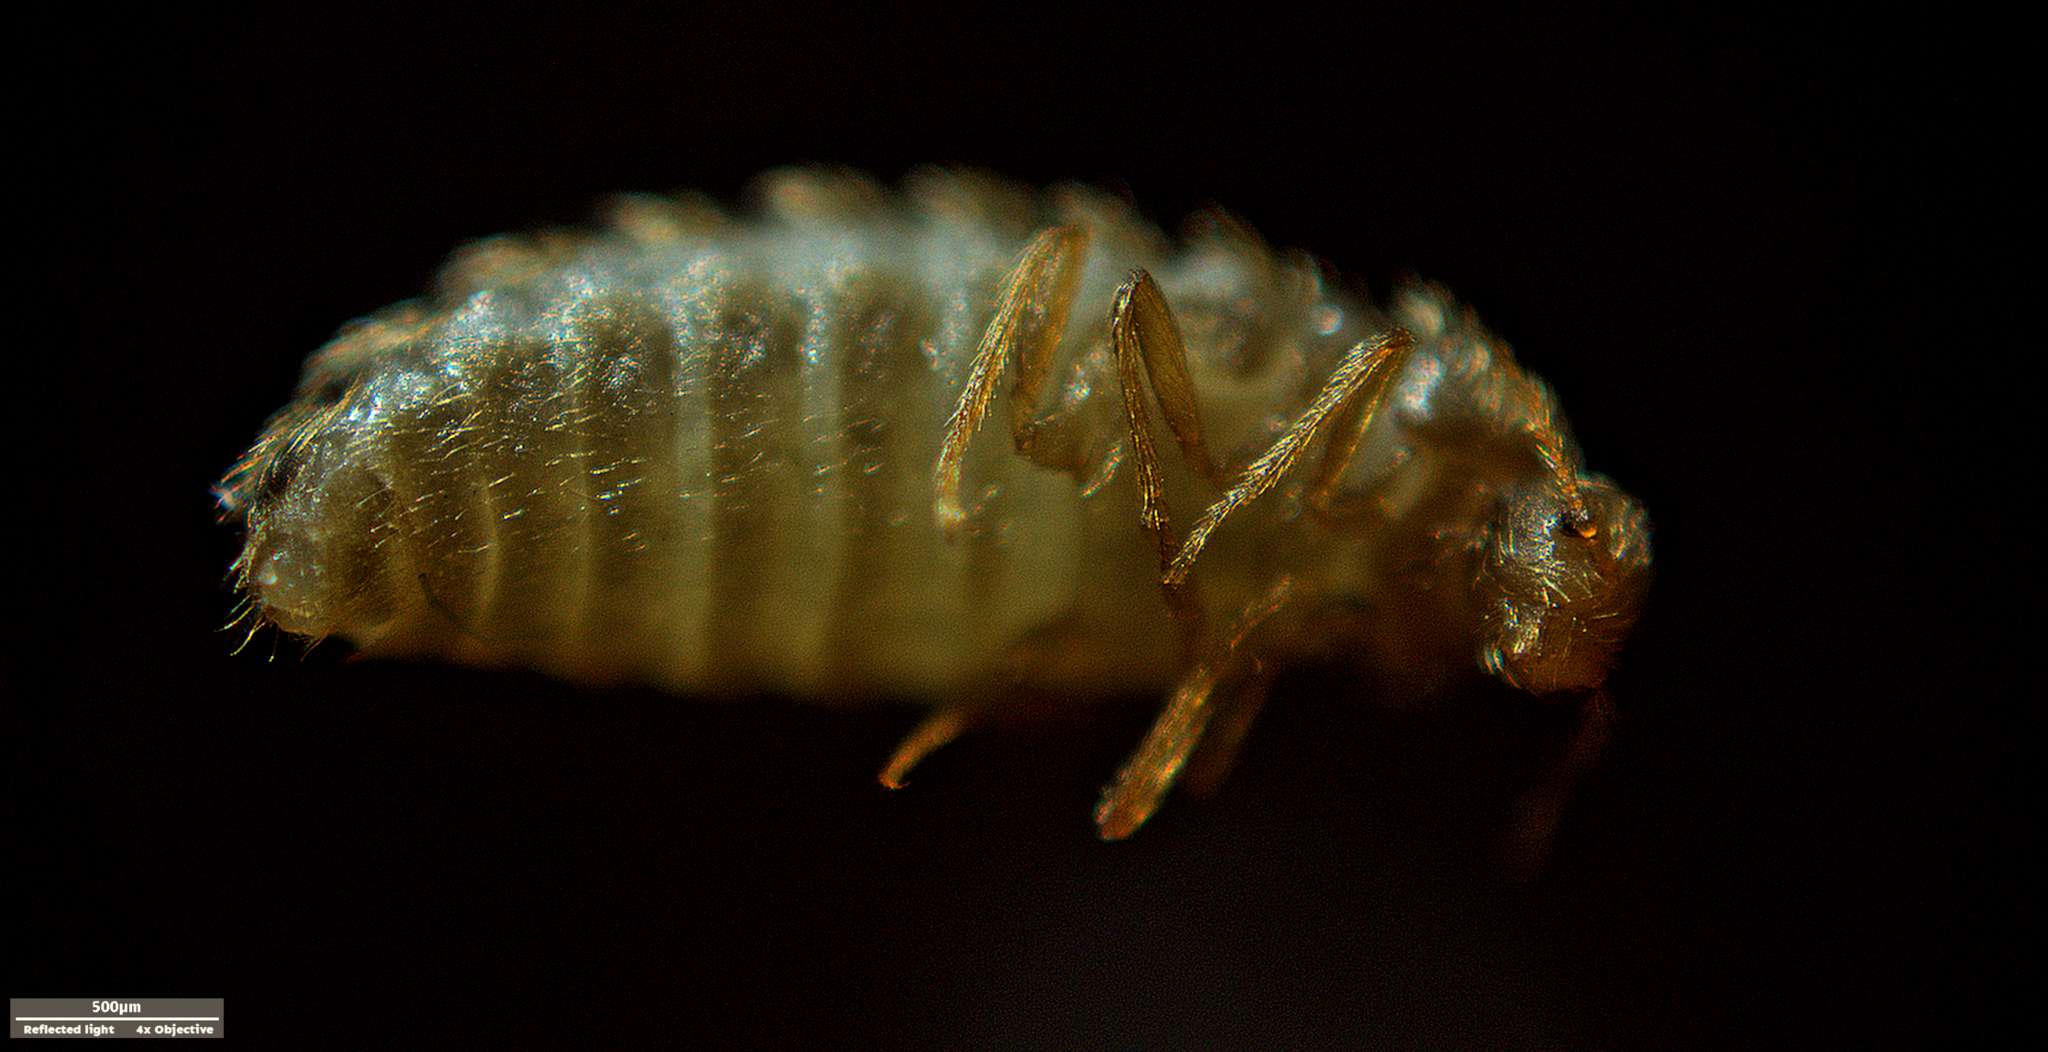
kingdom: Animalia
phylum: Arthropoda
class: Insecta
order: Coleoptera
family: Dermestidae
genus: Thylodrias
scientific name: Thylodrias contractus
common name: Odd beetle
